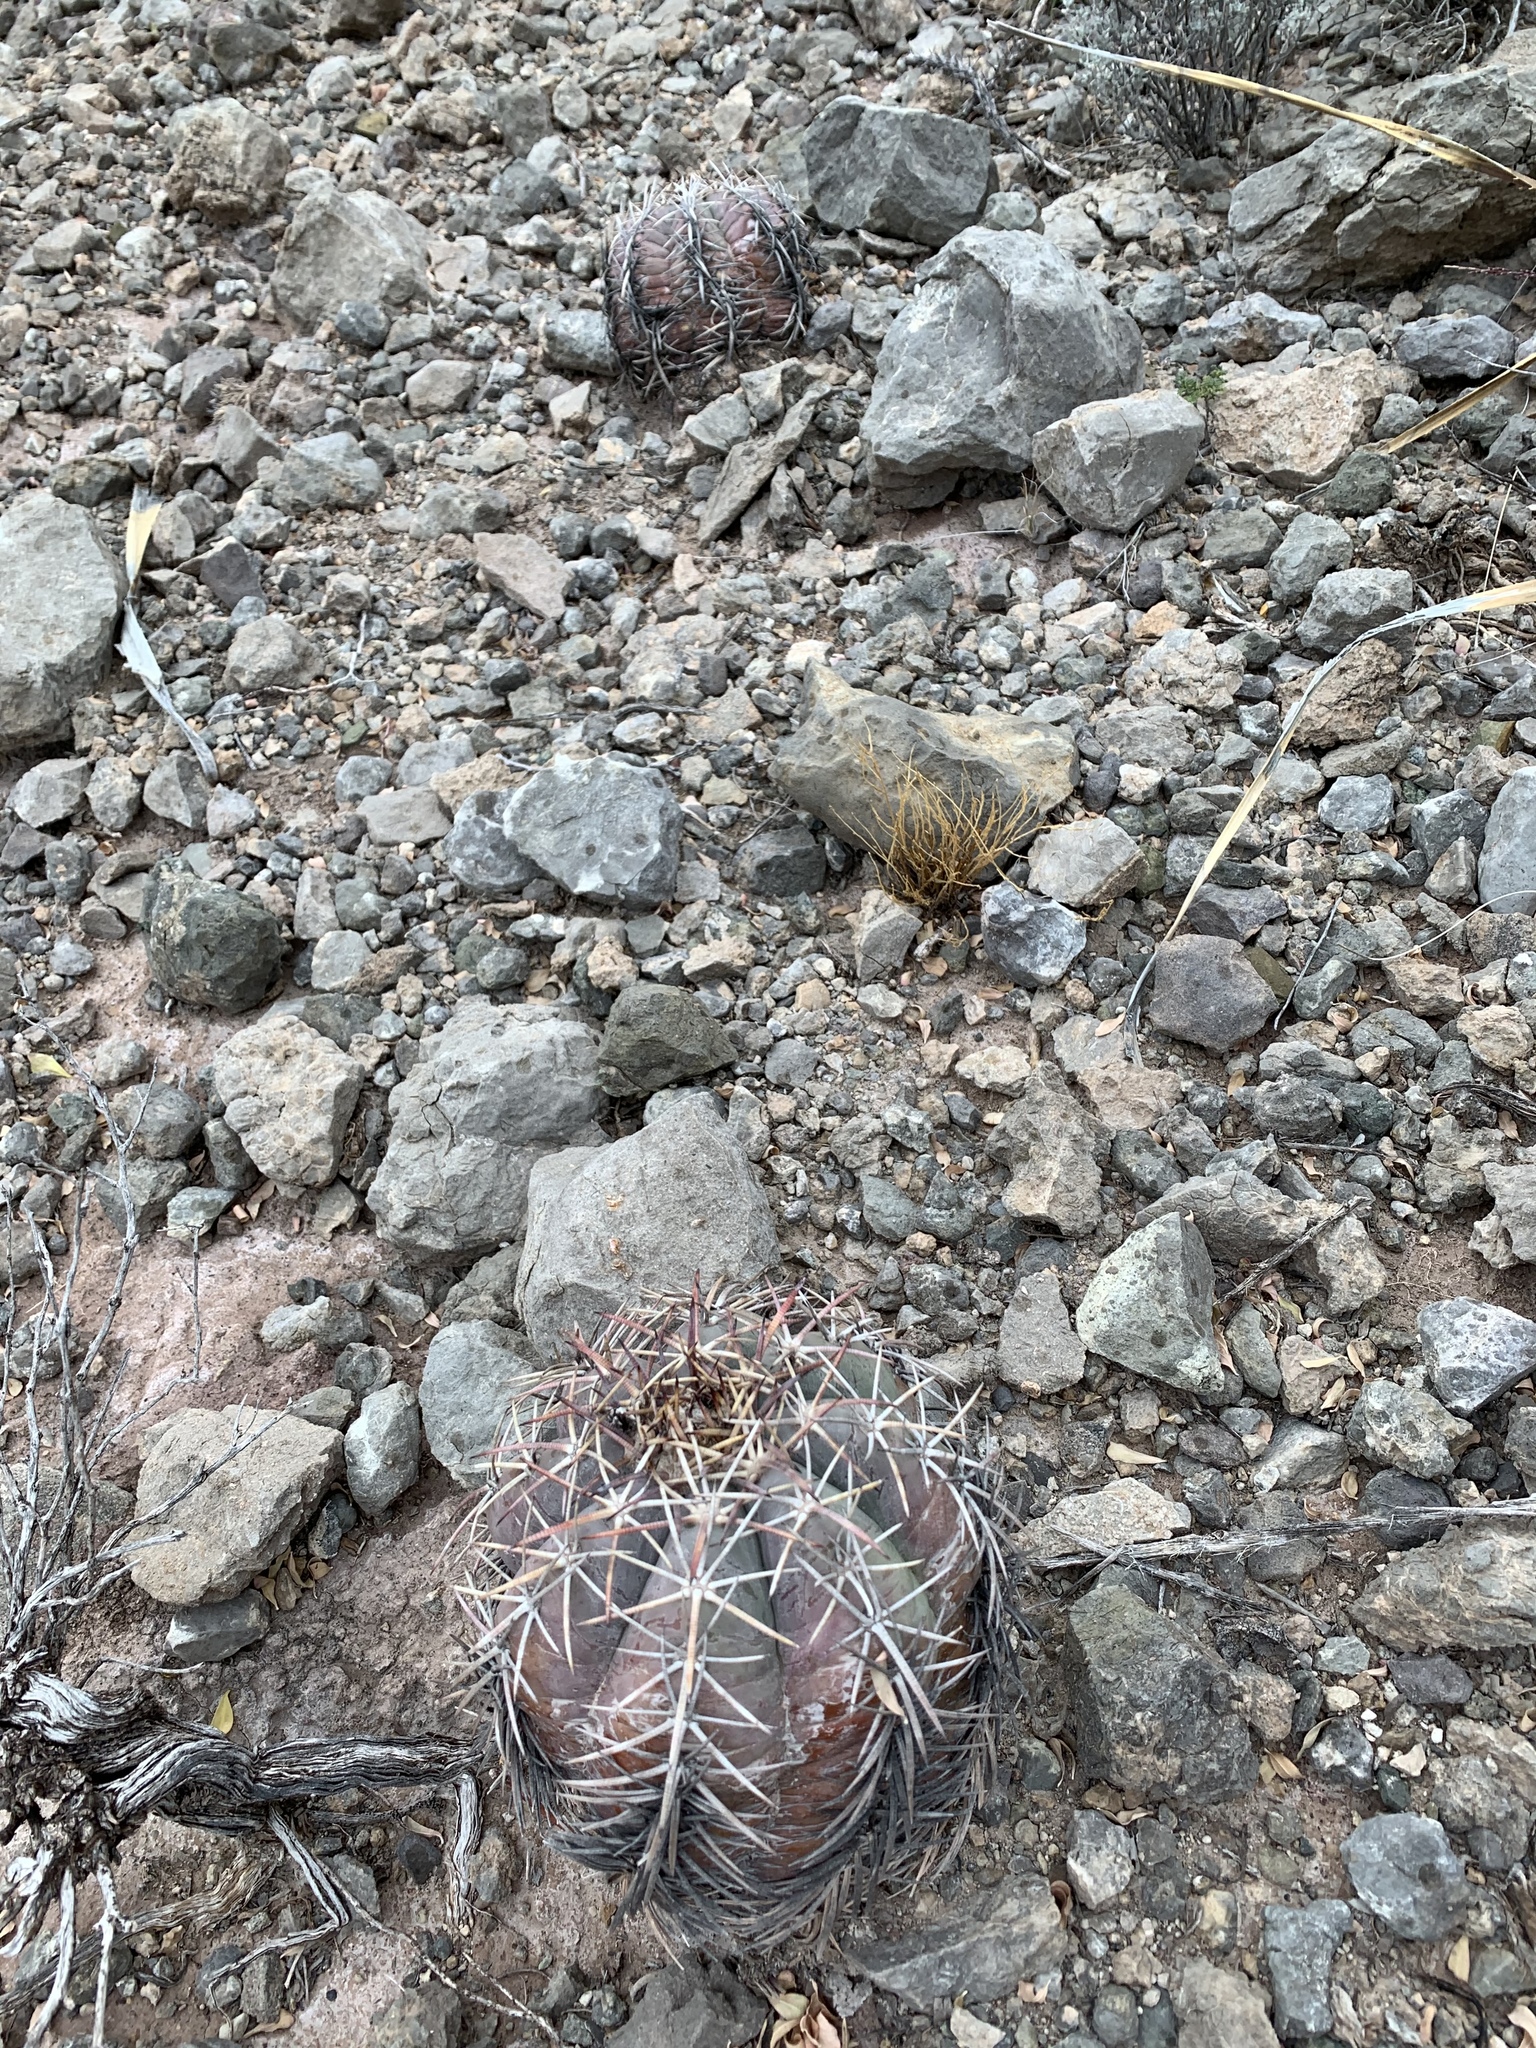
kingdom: Plantae
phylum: Tracheophyta
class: Magnoliopsida
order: Caryophyllales
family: Cactaceae
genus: Echinocactus
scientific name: Echinocactus horizonthalonius
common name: Devilshead
